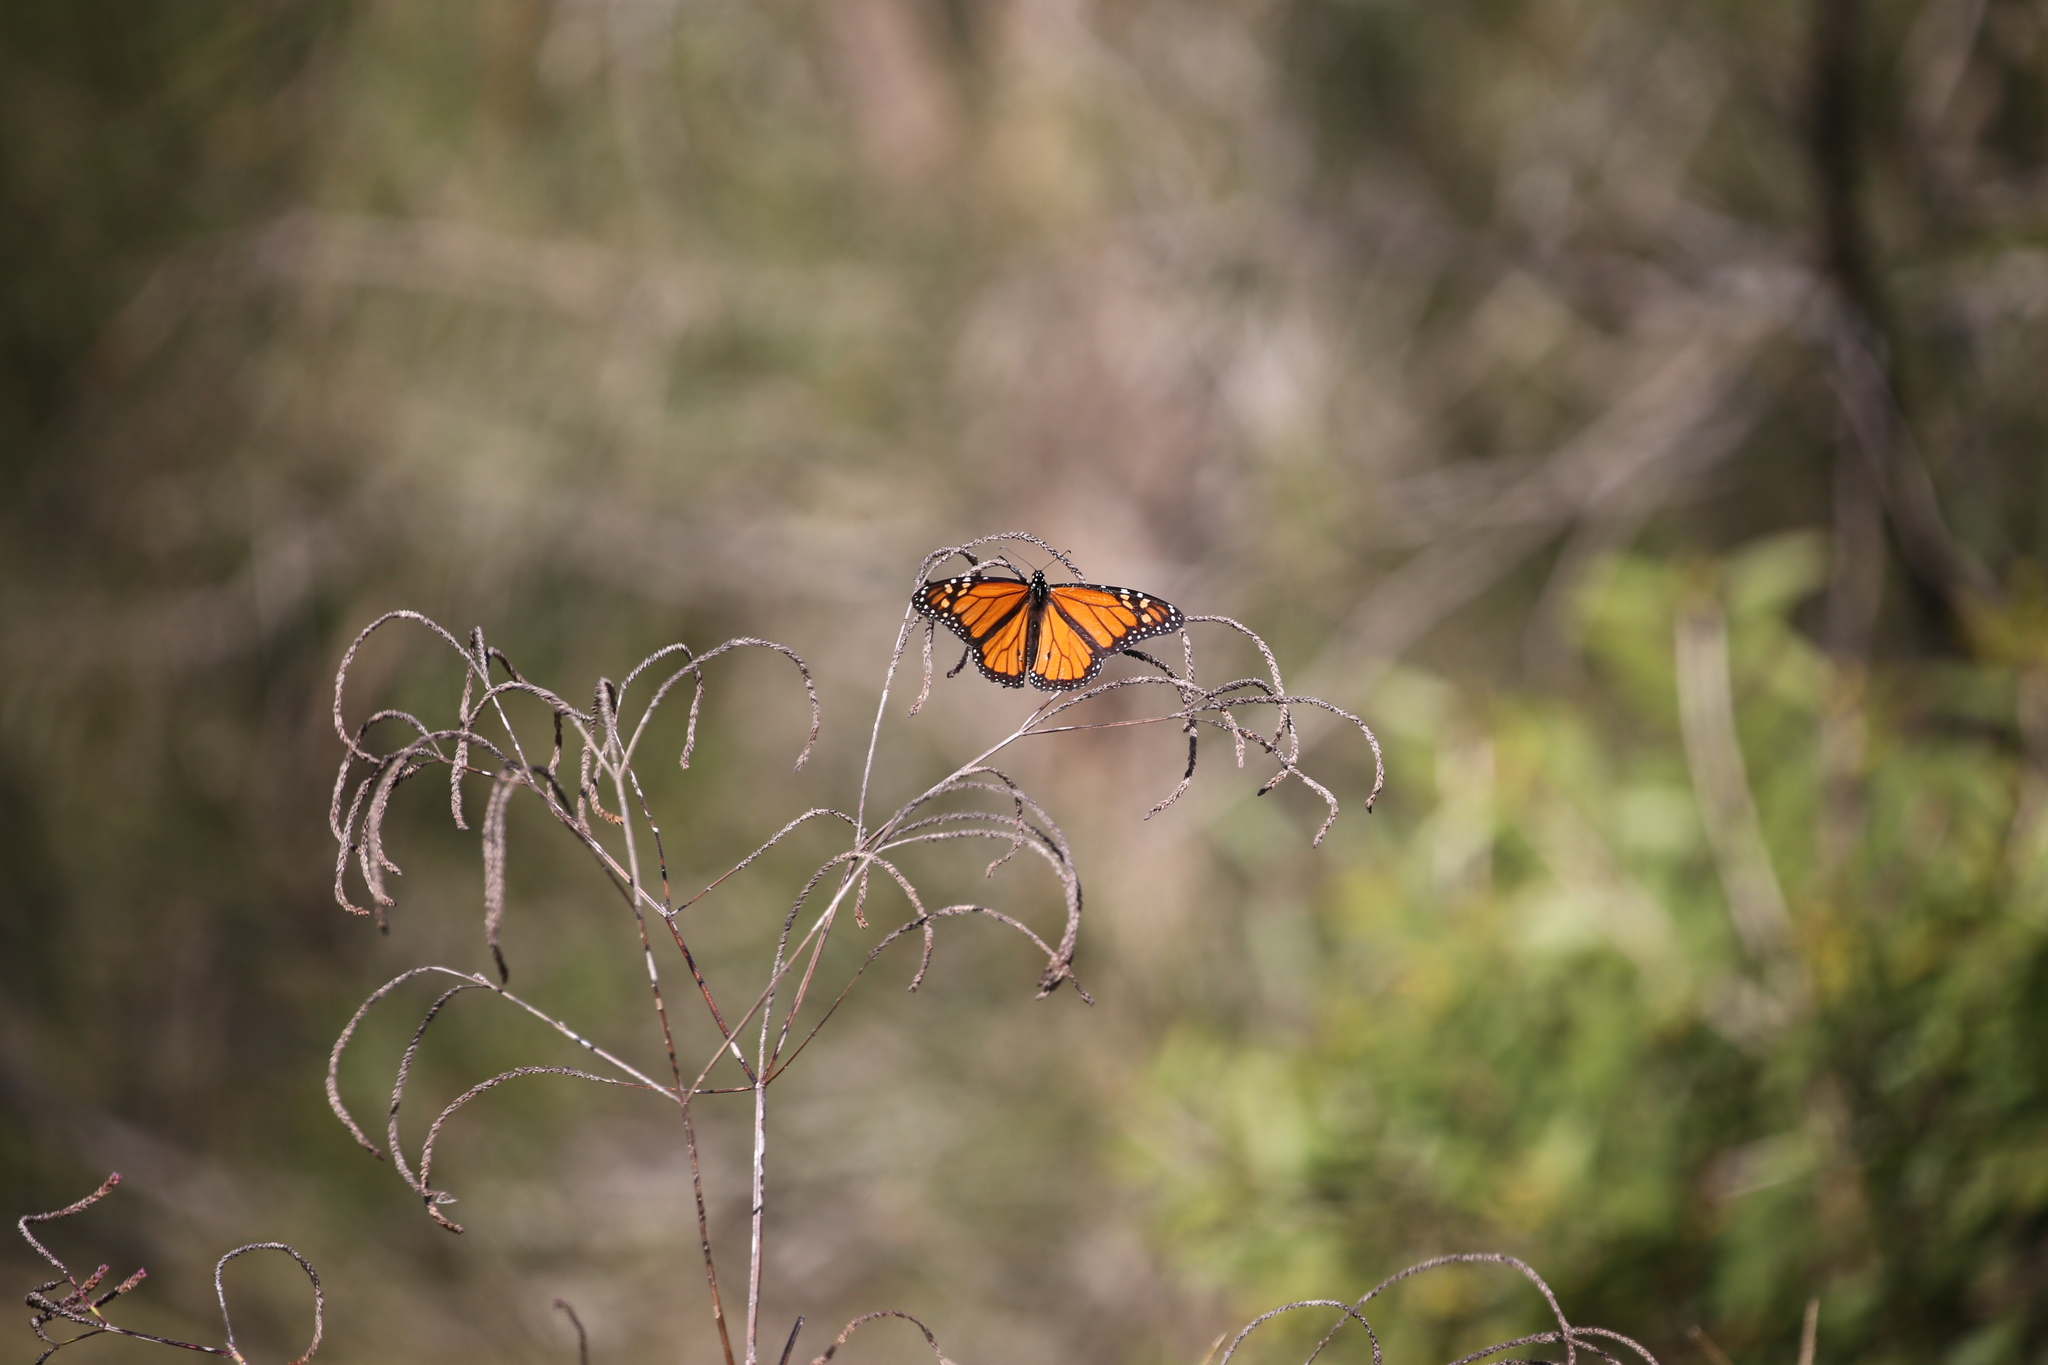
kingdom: Animalia
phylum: Arthropoda
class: Insecta
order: Lepidoptera
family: Nymphalidae
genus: Danaus
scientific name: Danaus plexippus
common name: Monarch
